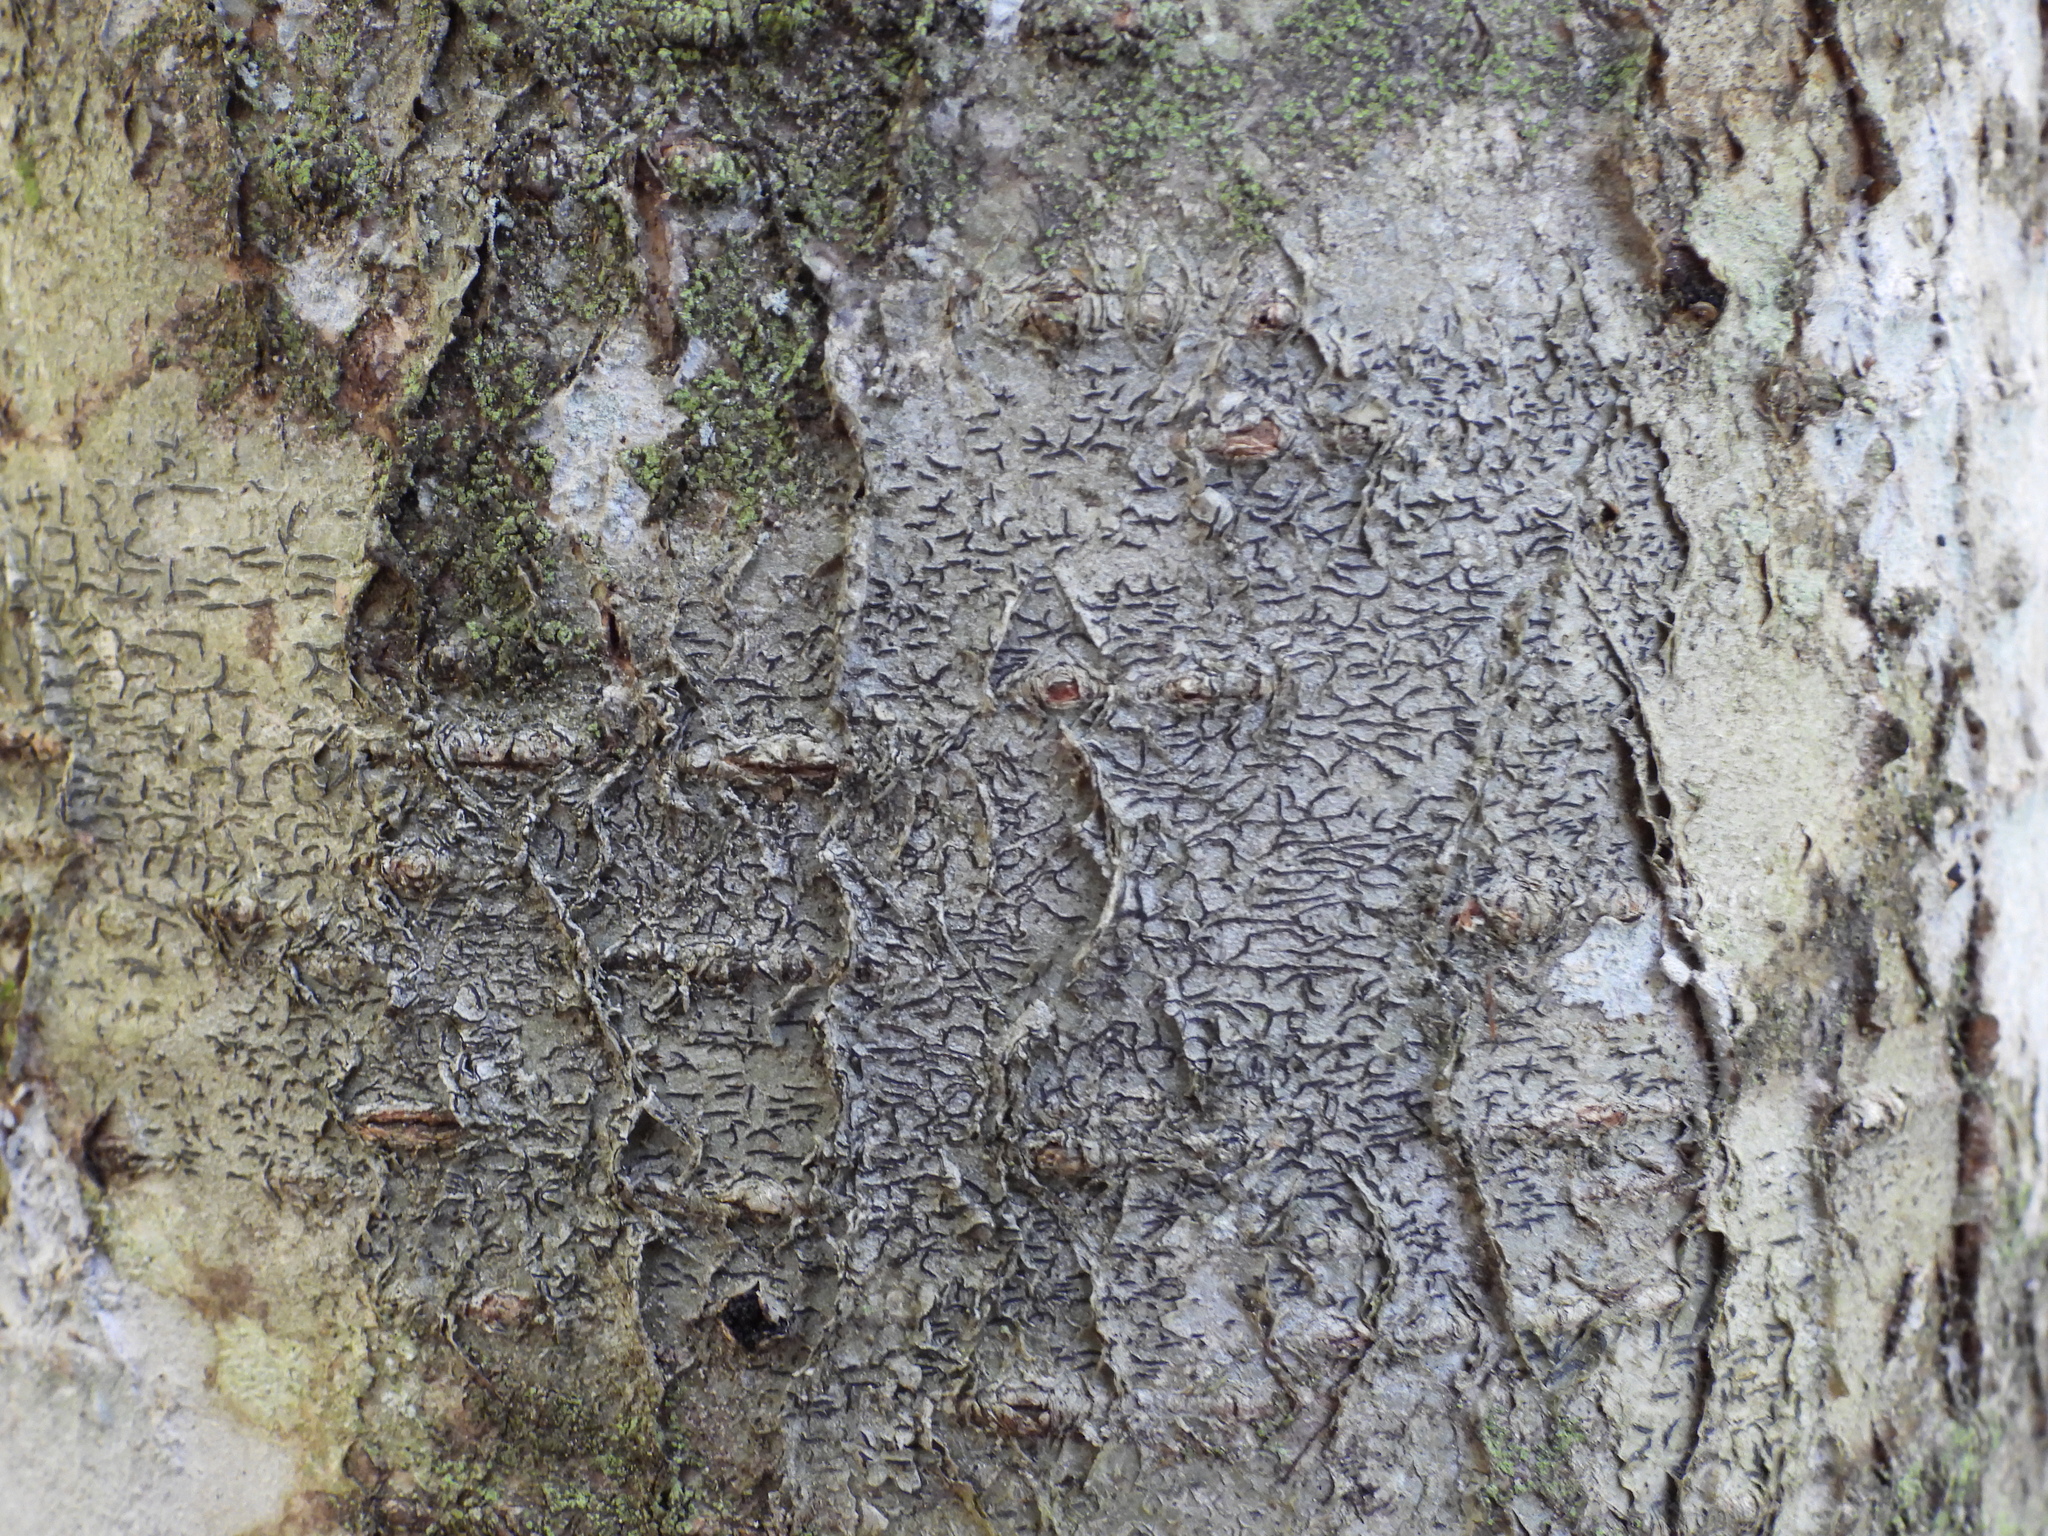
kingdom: Fungi
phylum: Ascomycota
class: Lecanoromycetes
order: Ostropales
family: Graphidaceae
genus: Graphis
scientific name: Graphis scripta
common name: Script lichen
